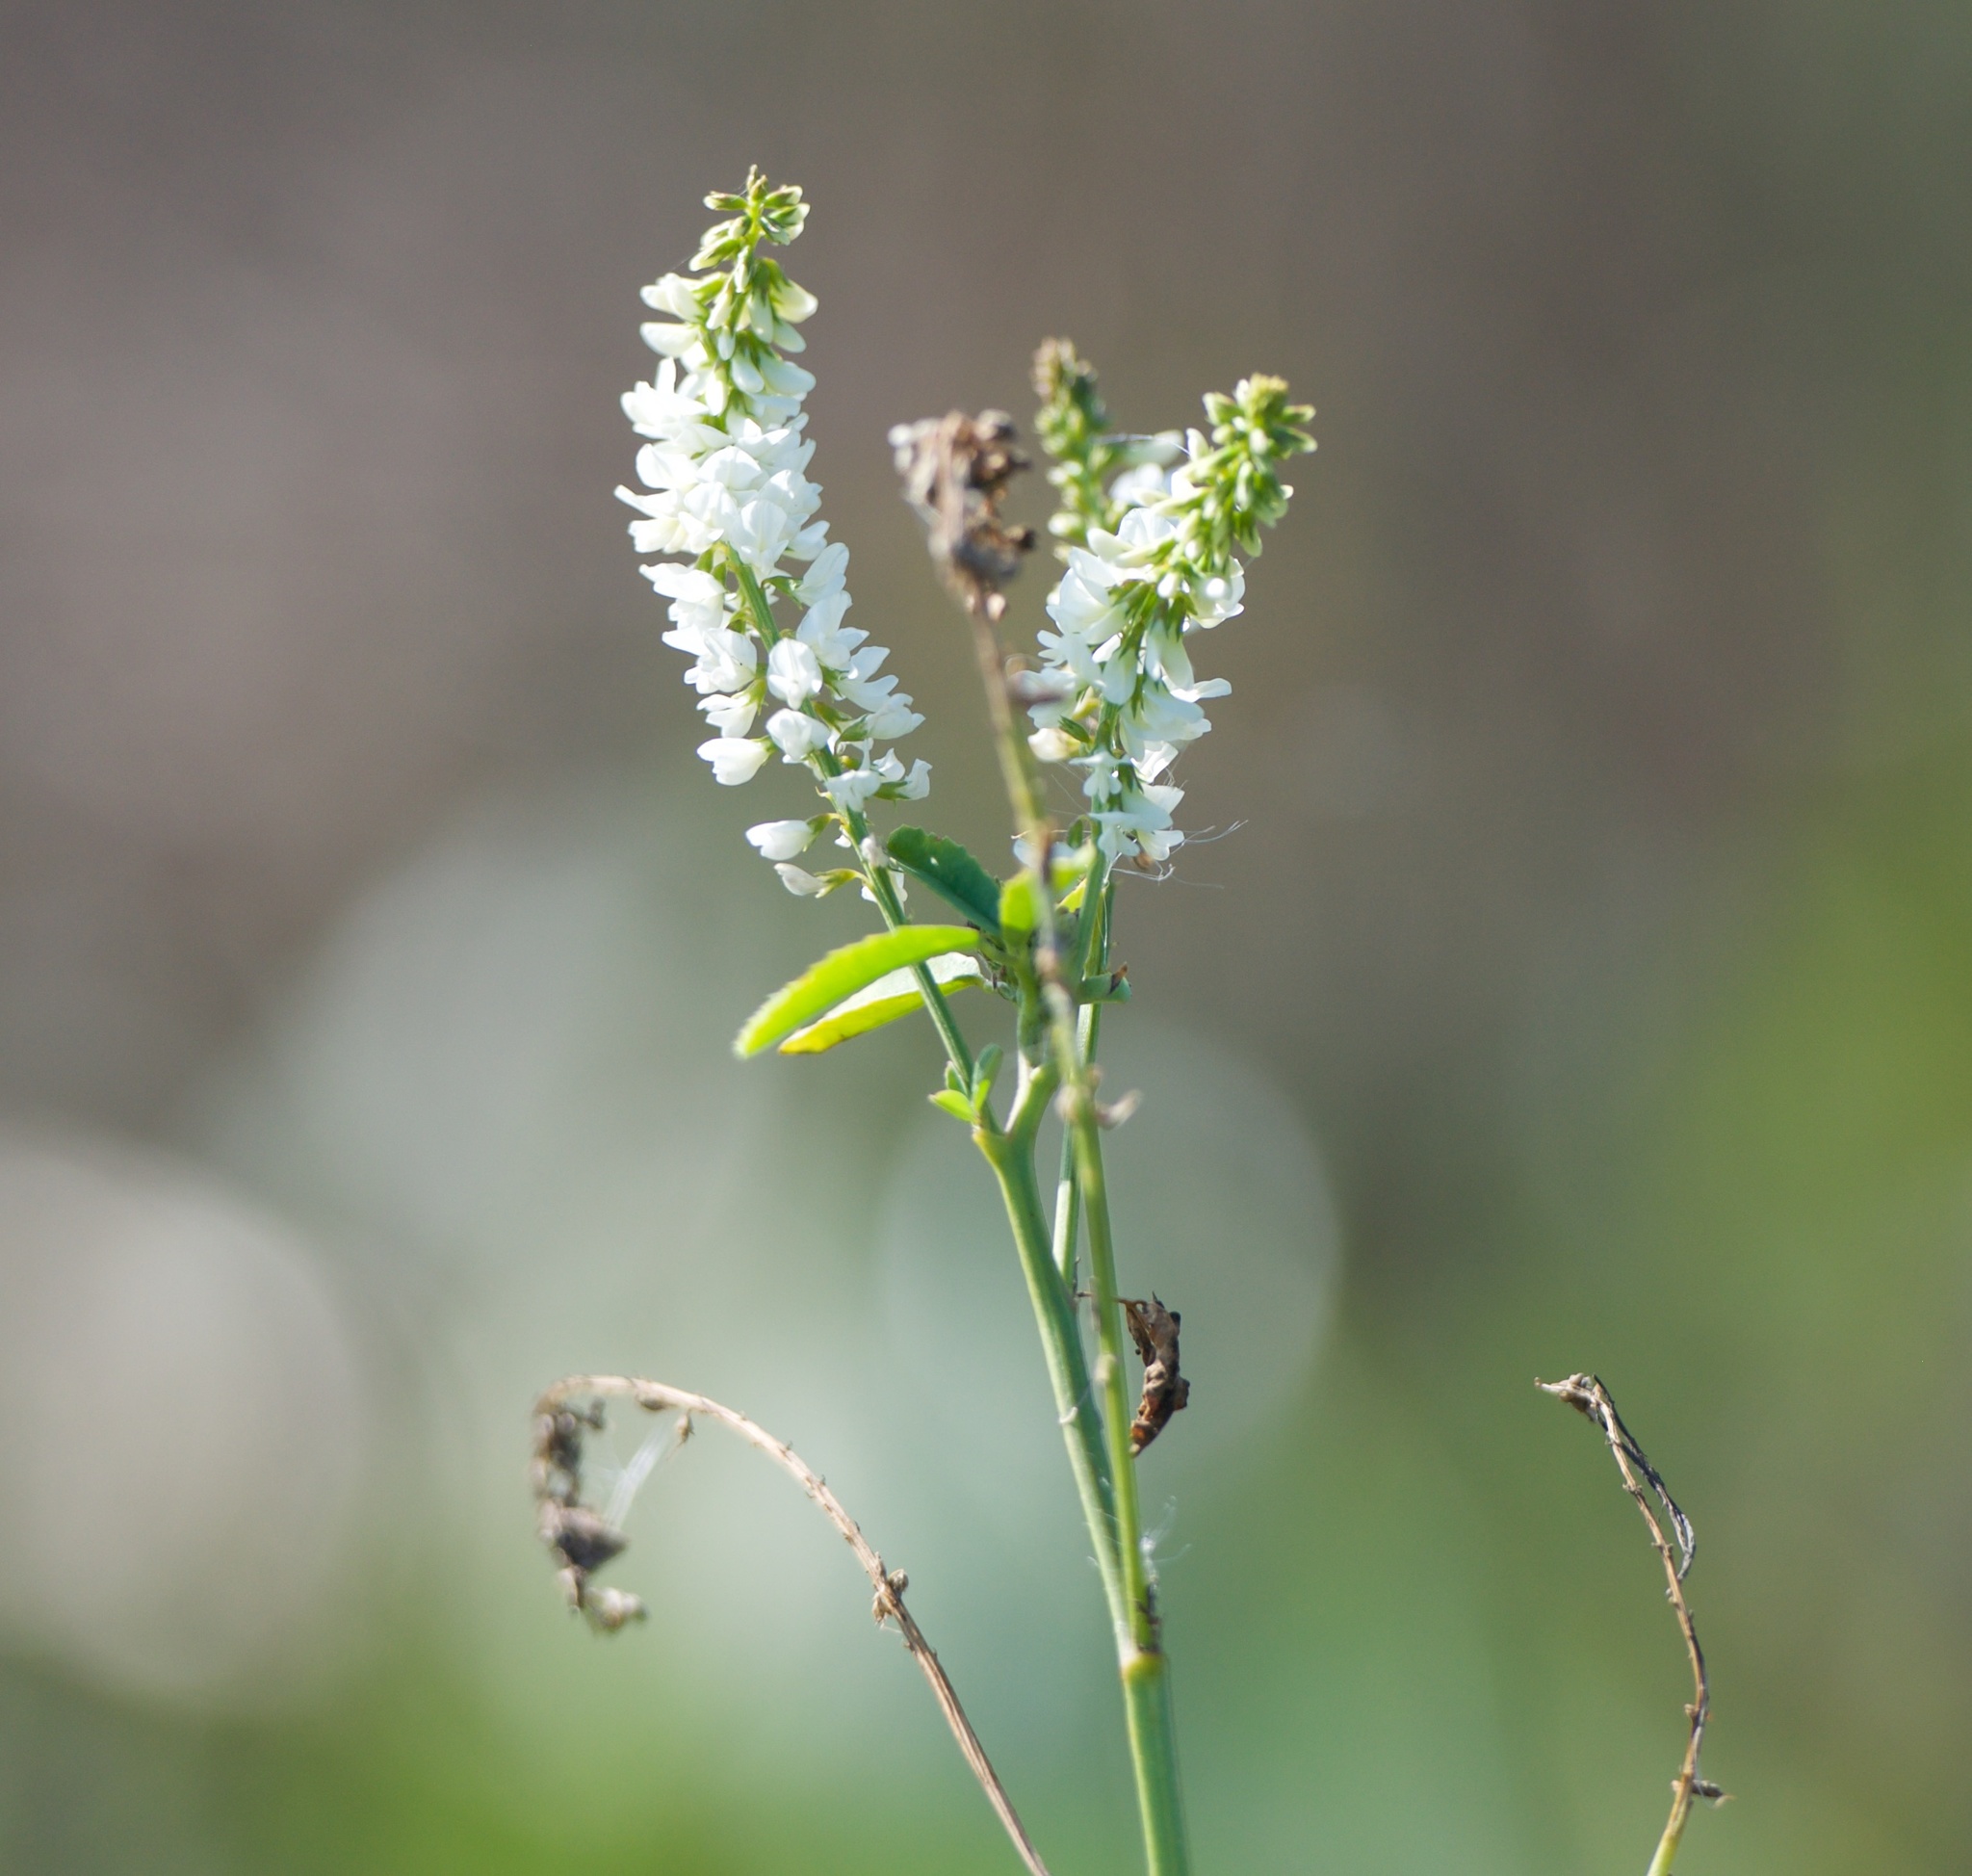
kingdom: Plantae
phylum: Tracheophyta
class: Magnoliopsida
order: Fabales
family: Fabaceae
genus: Melilotus
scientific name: Melilotus albus
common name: White melilot
